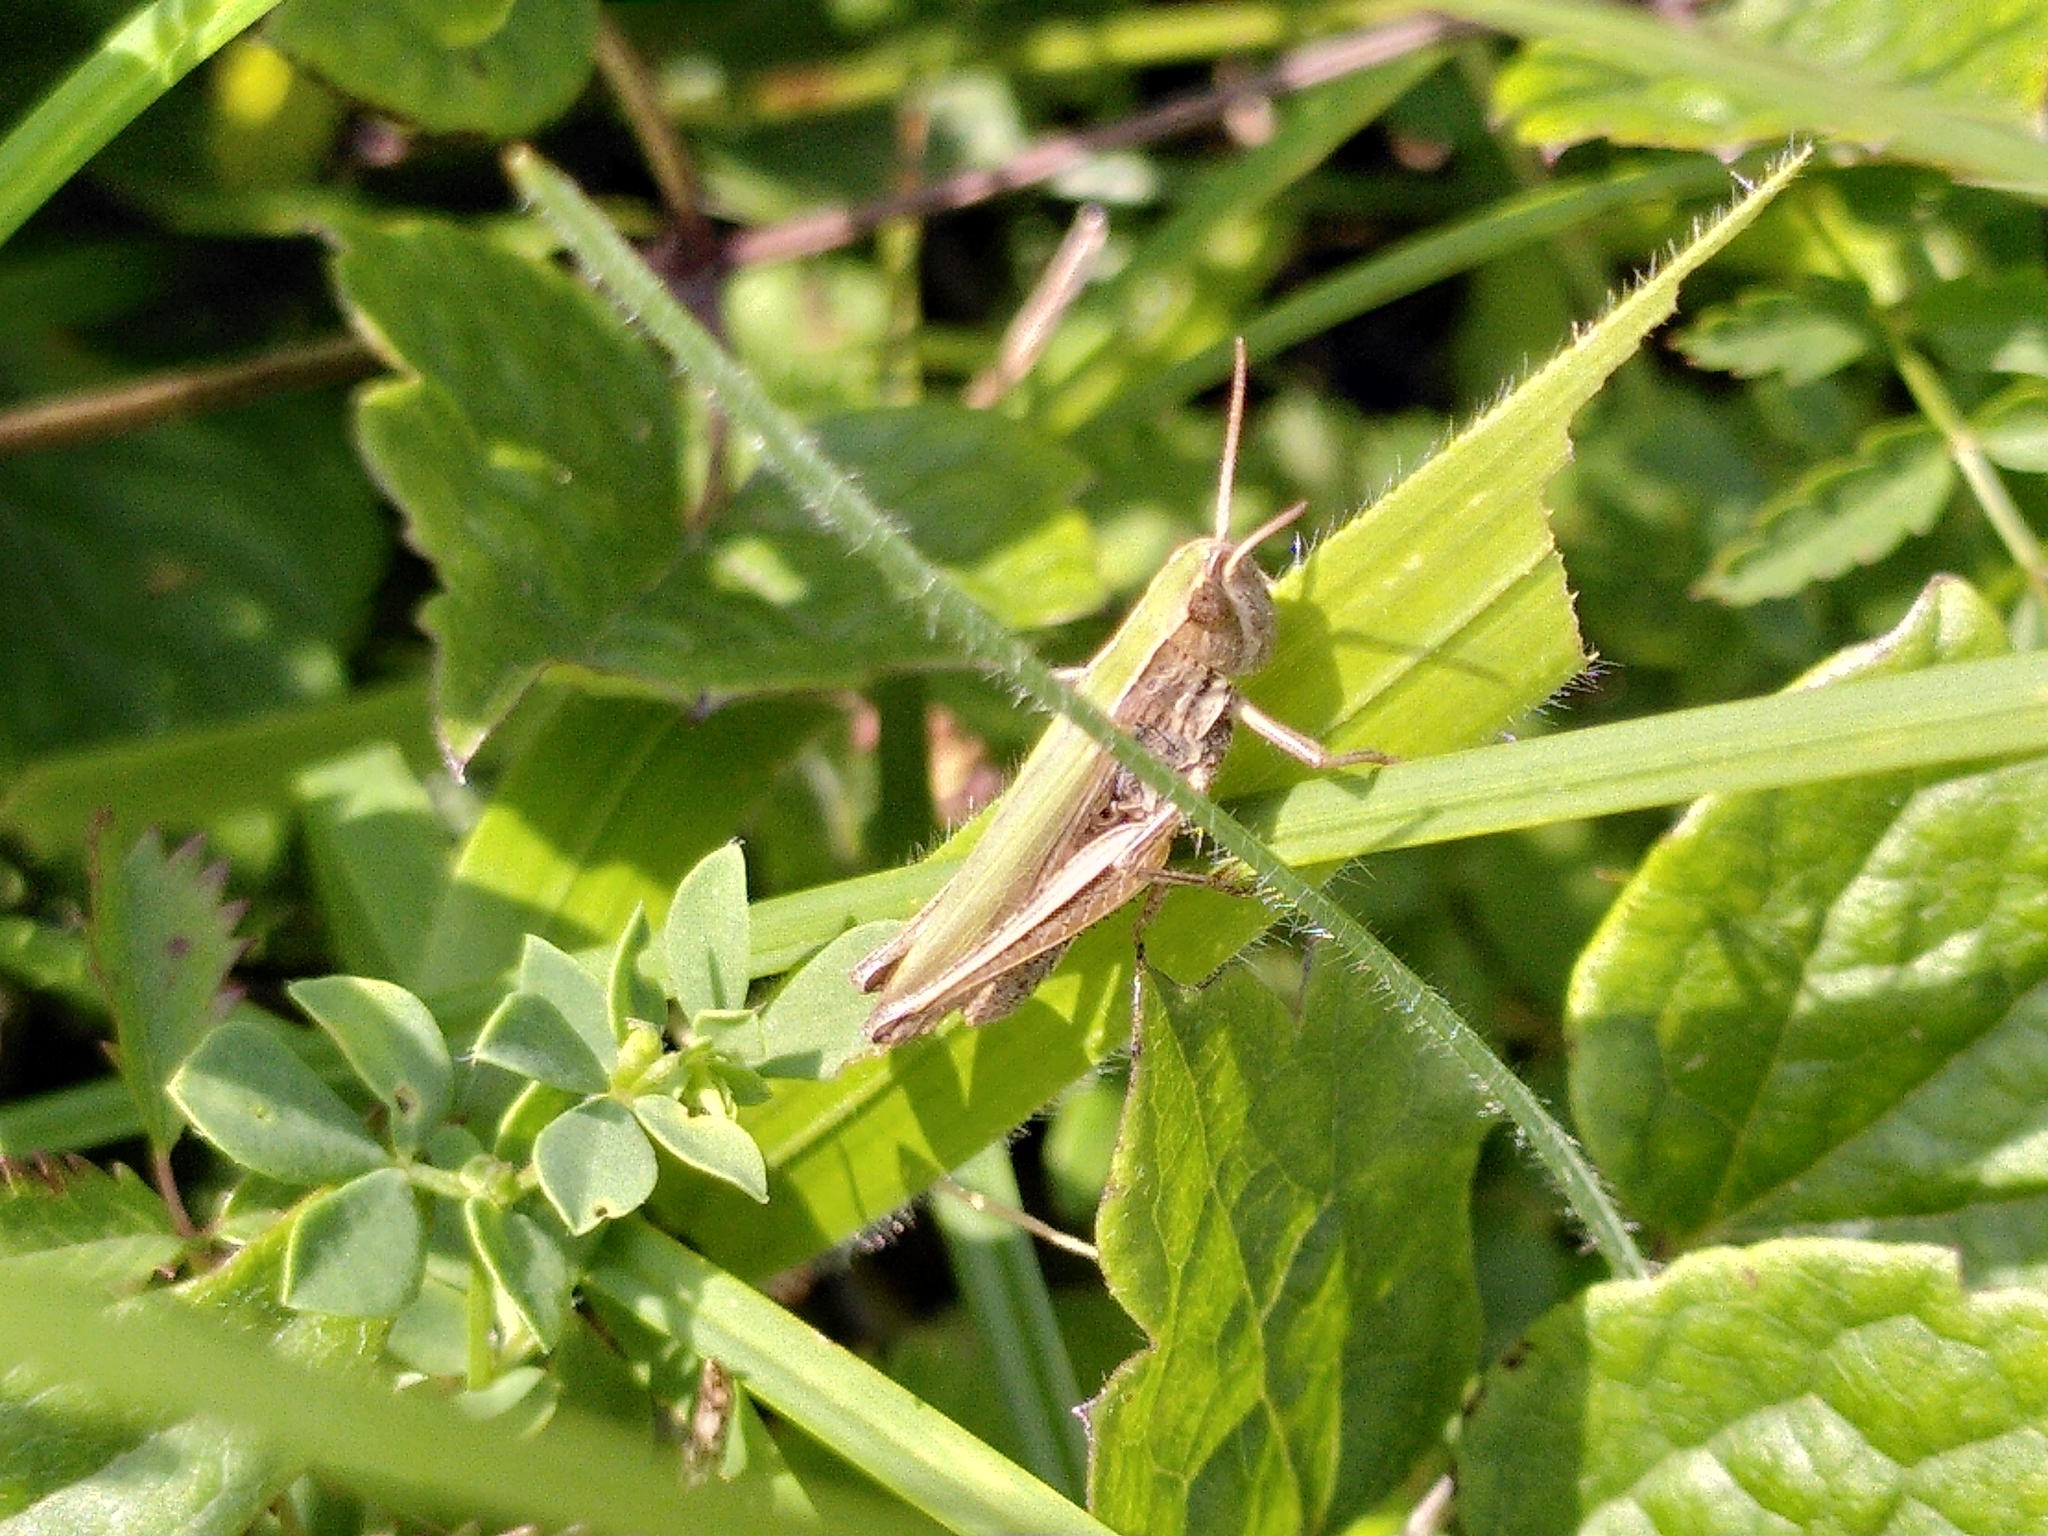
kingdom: Animalia
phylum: Arthropoda
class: Insecta
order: Orthoptera
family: Acrididae
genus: Chorthippus
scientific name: Chorthippus albomarginatus
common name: Lesser marsh grasshopper
